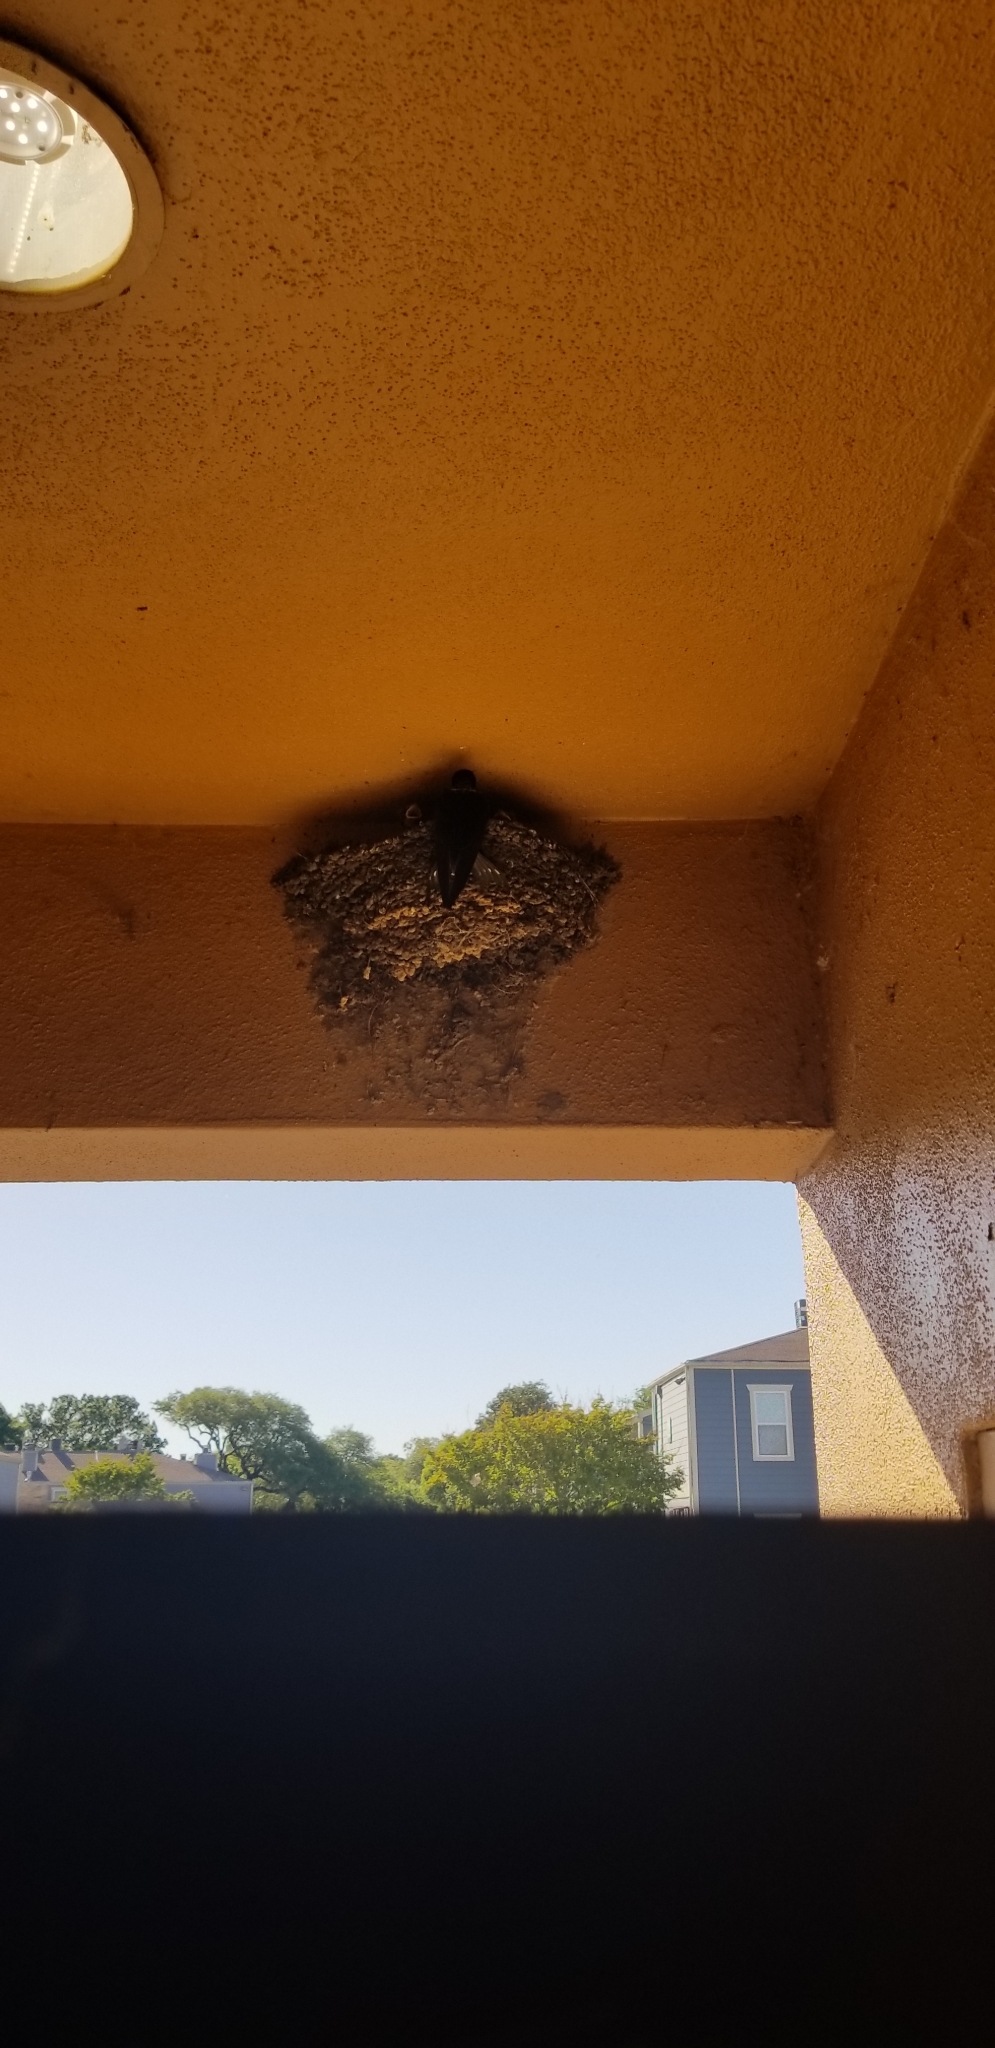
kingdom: Animalia
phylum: Chordata
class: Aves
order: Passeriformes
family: Hirundinidae
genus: Hirundo
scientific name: Hirundo rustica
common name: Barn swallow
